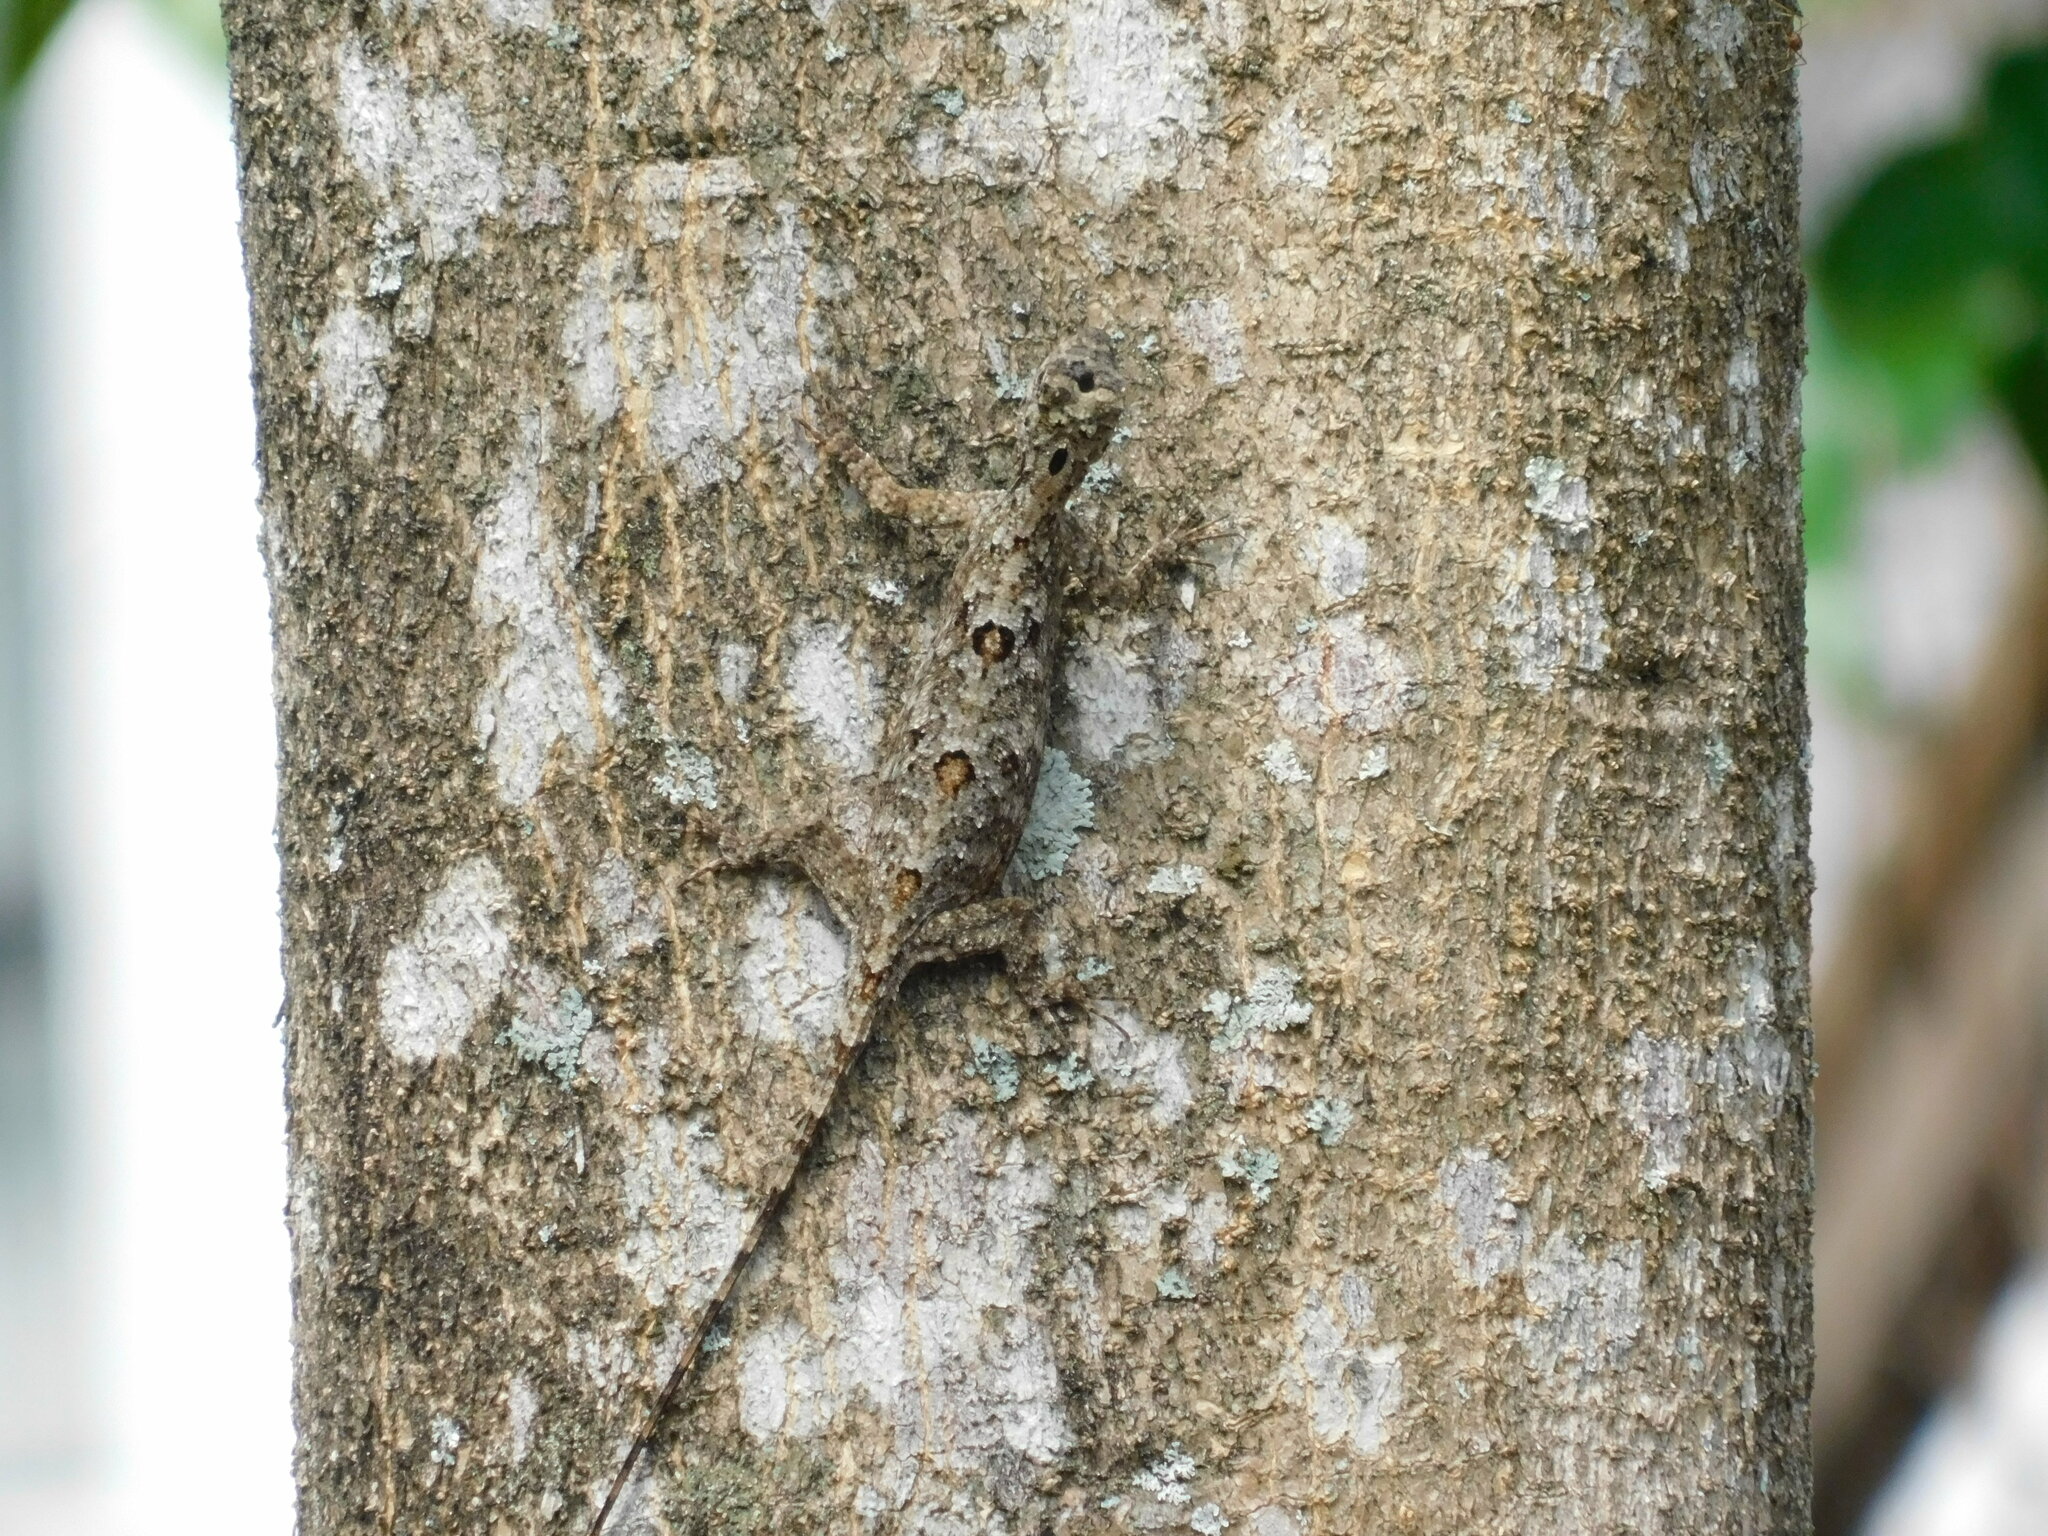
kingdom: Animalia
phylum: Chordata
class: Squamata
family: Agamidae
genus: Draco
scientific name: Draco volans
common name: Common flying dragon
